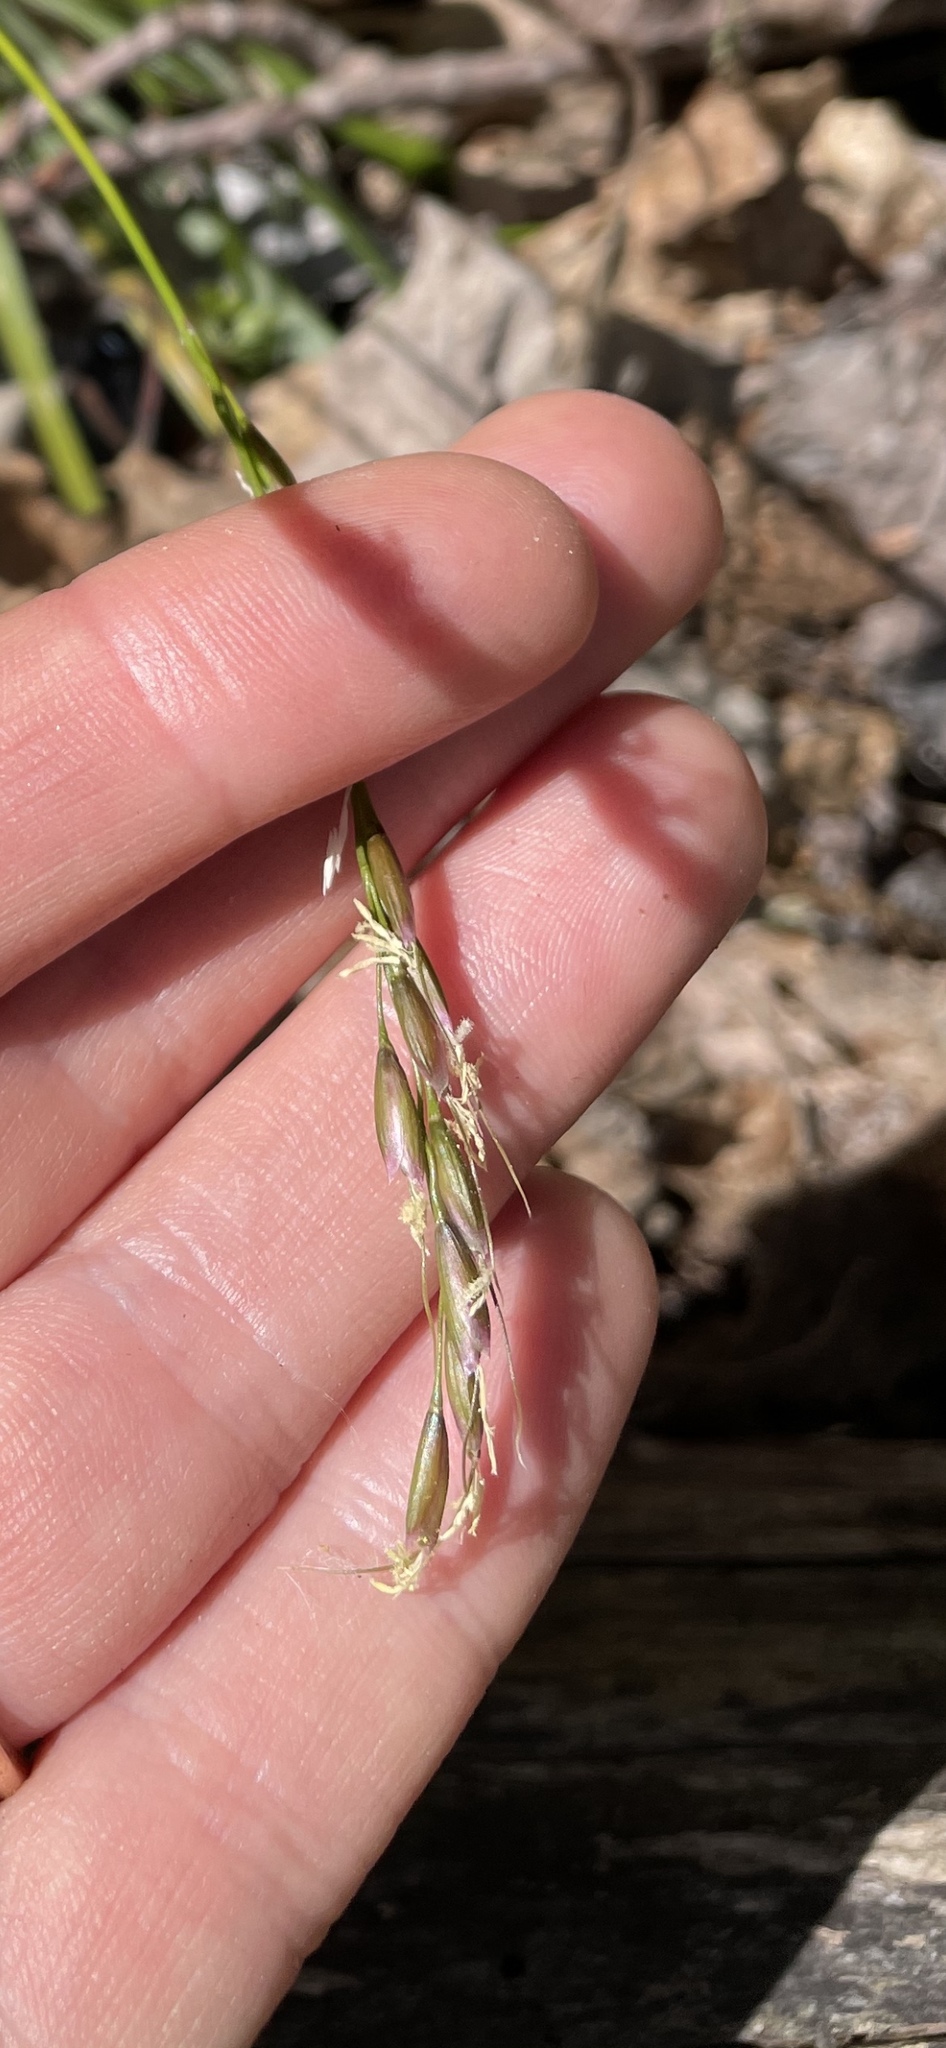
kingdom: Plantae
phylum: Tracheophyta
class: Liliopsida
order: Poales
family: Poaceae
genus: Oryzopsis
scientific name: Oryzopsis asperifolia
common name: Rough-leaved mountain rice
